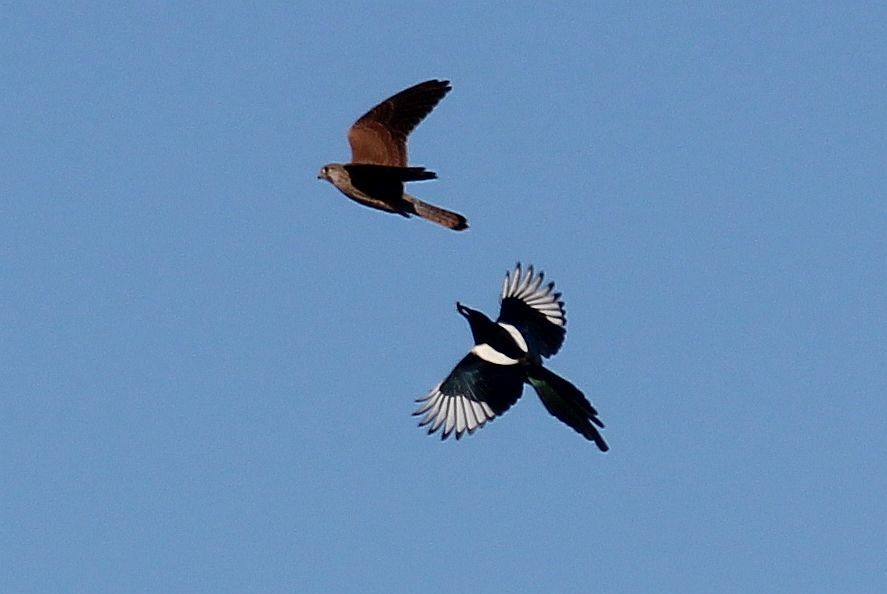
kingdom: Animalia
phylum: Chordata
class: Aves
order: Falconiformes
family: Falconidae
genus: Falco
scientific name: Falco tinnunculus
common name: Common kestrel
